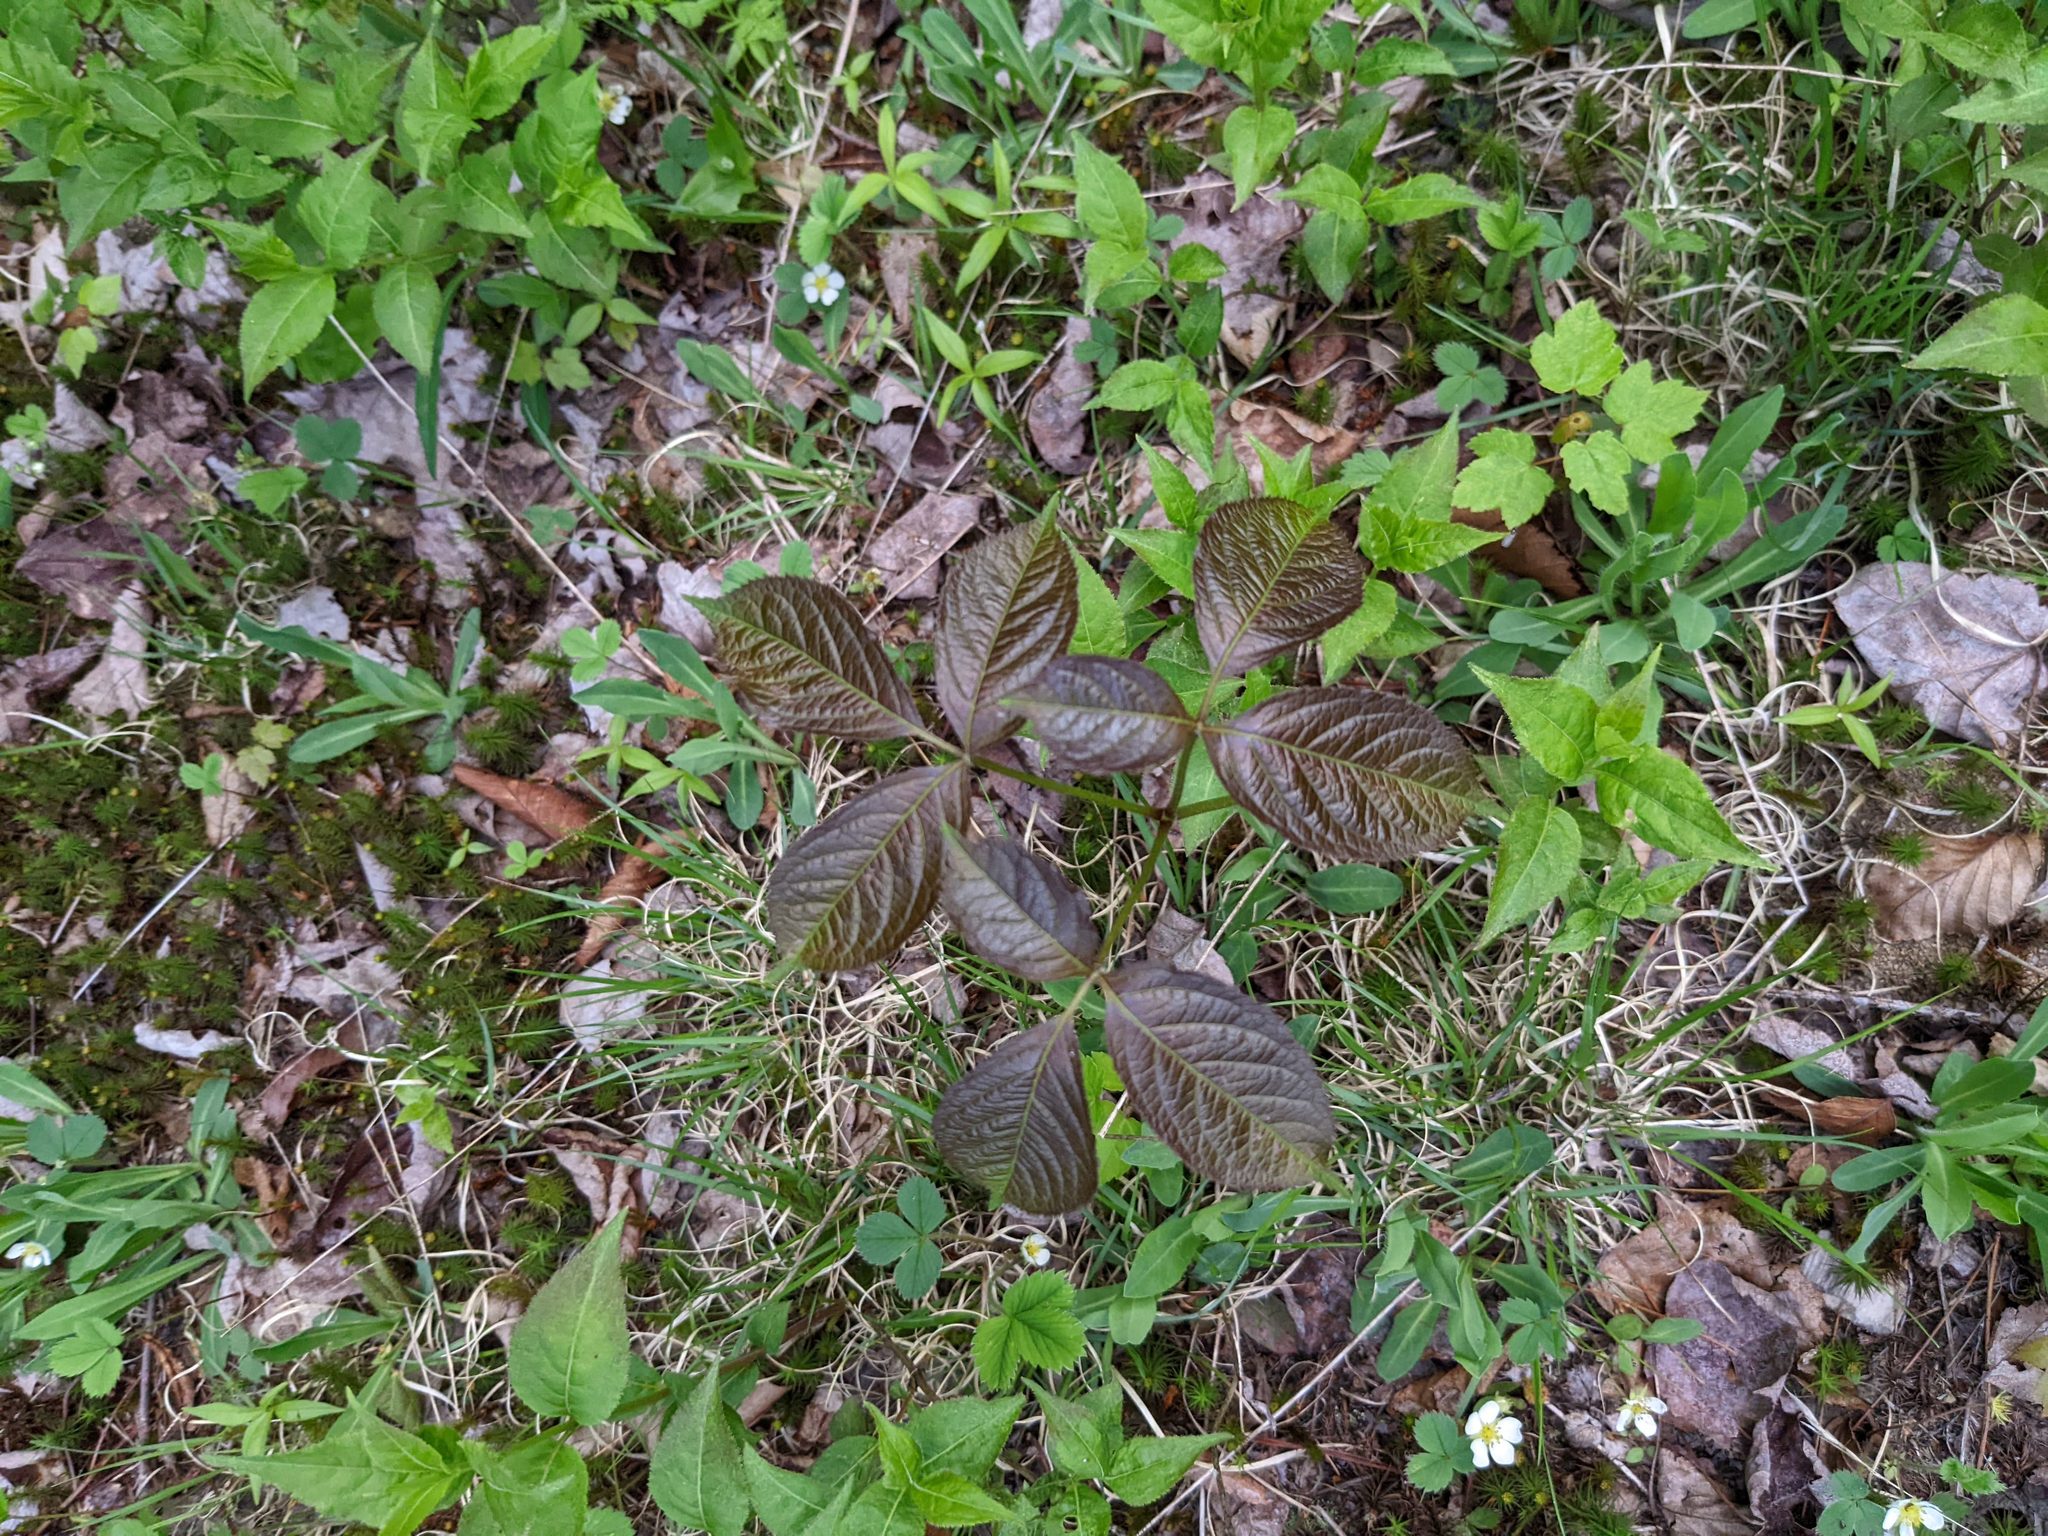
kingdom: Plantae
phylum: Tracheophyta
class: Magnoliopsida
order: Apiales
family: Araliaceae
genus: Aralia
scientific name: Aralia nudicaulis
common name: Wild sarsaparilla
